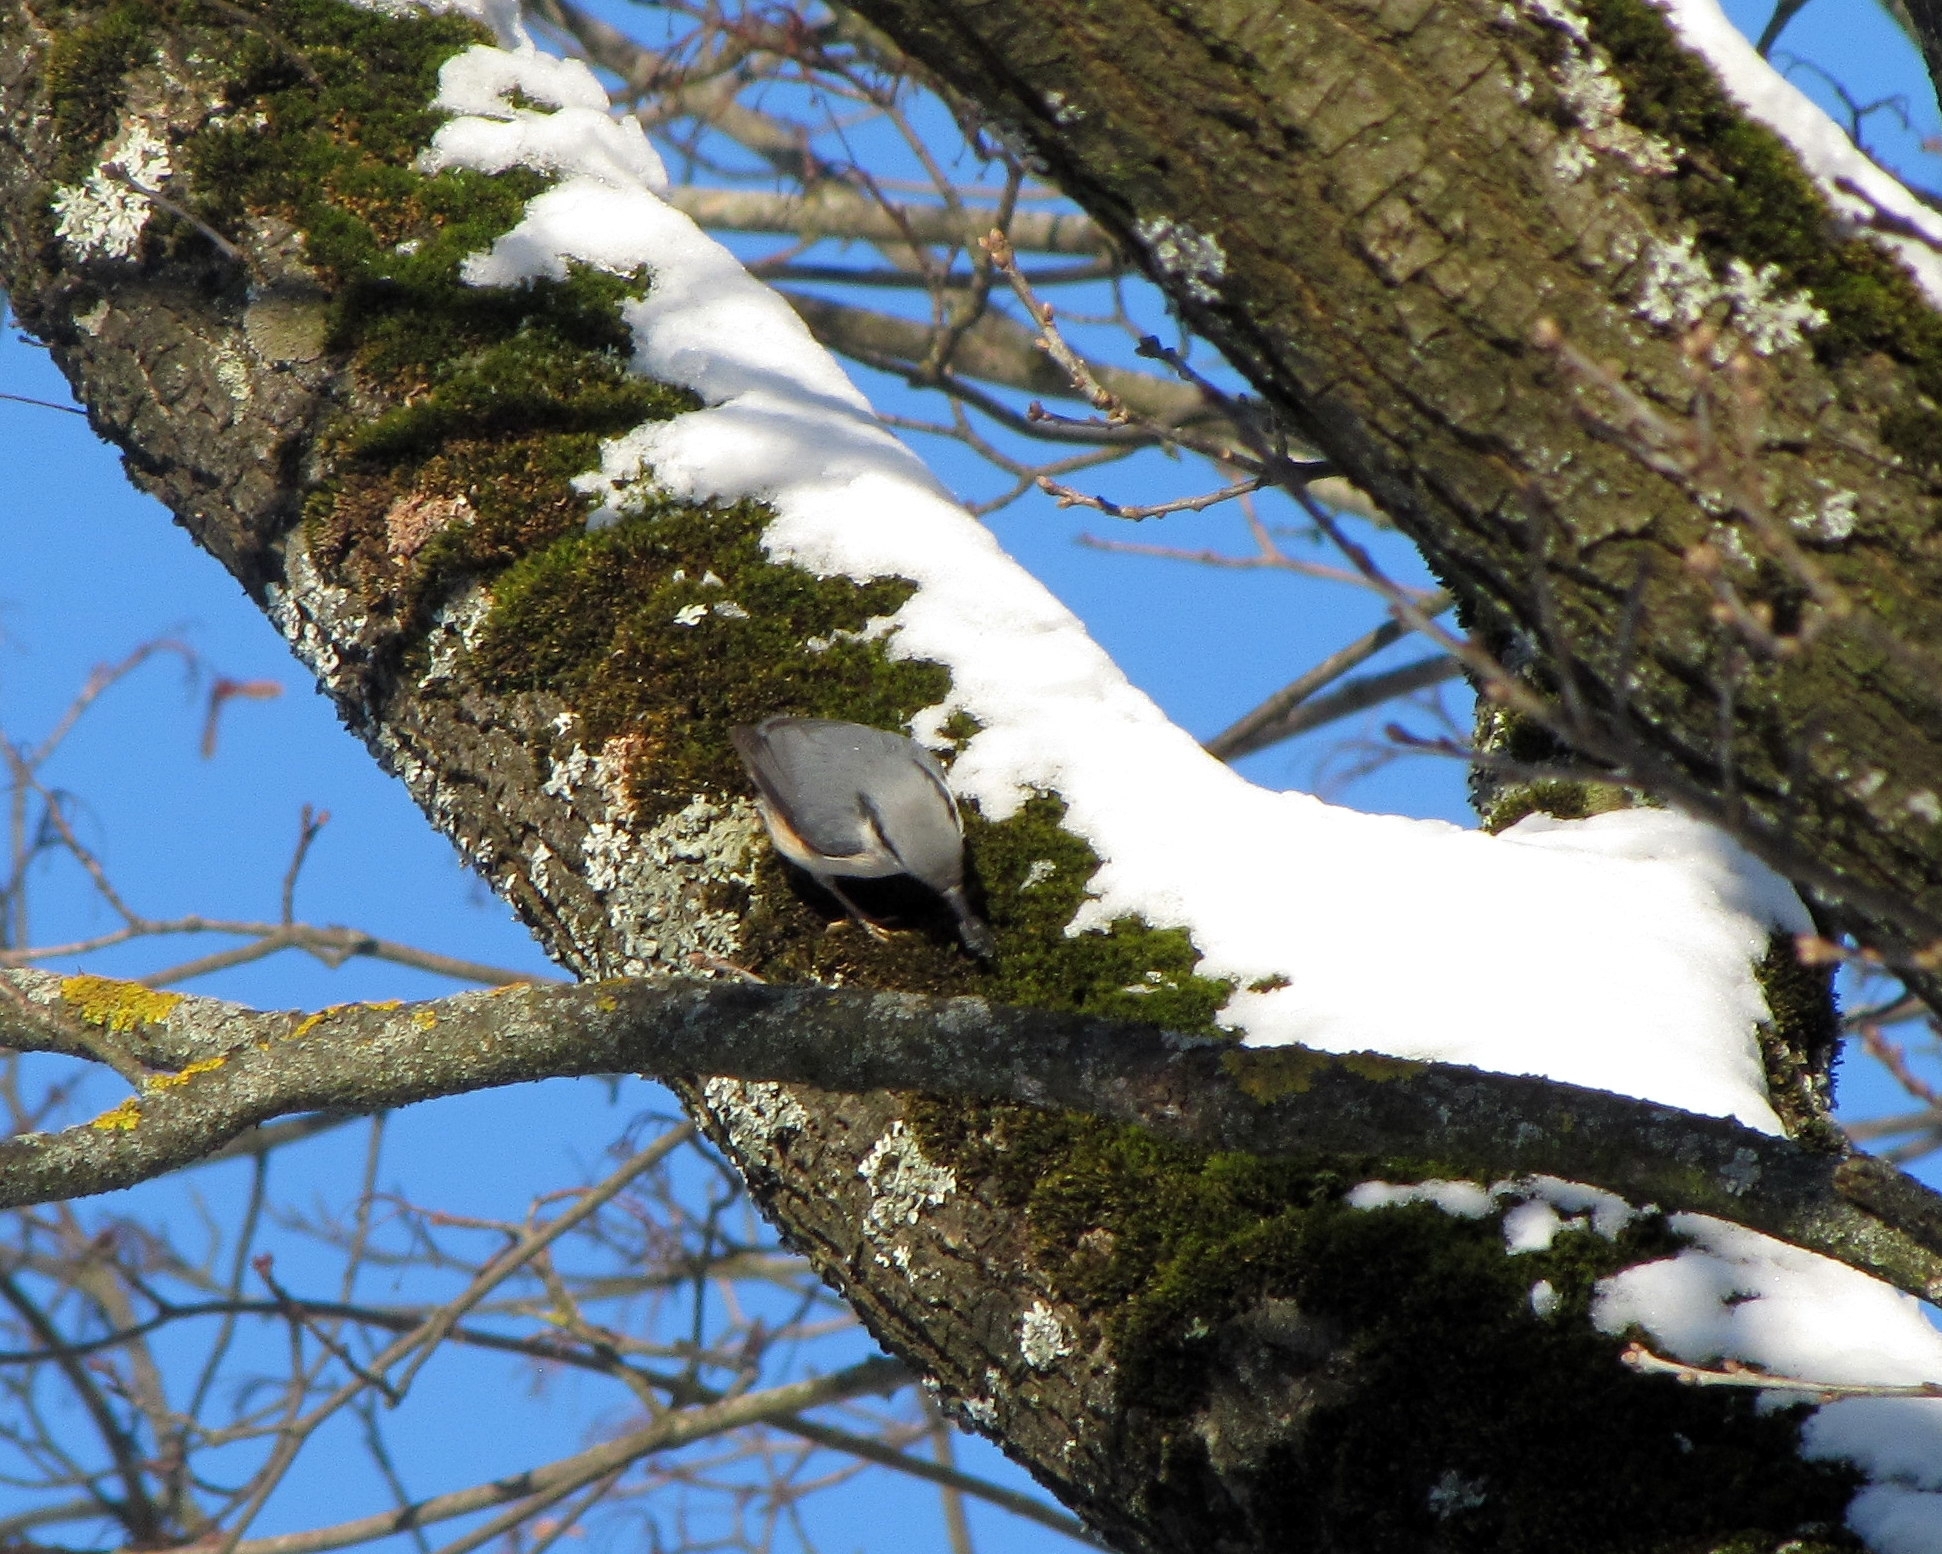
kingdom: Animalia
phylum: Chordata
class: Aves
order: Passeriformes
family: Sittidae
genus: Sitta
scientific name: Sitta europaea
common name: Eurasian nuthatch
